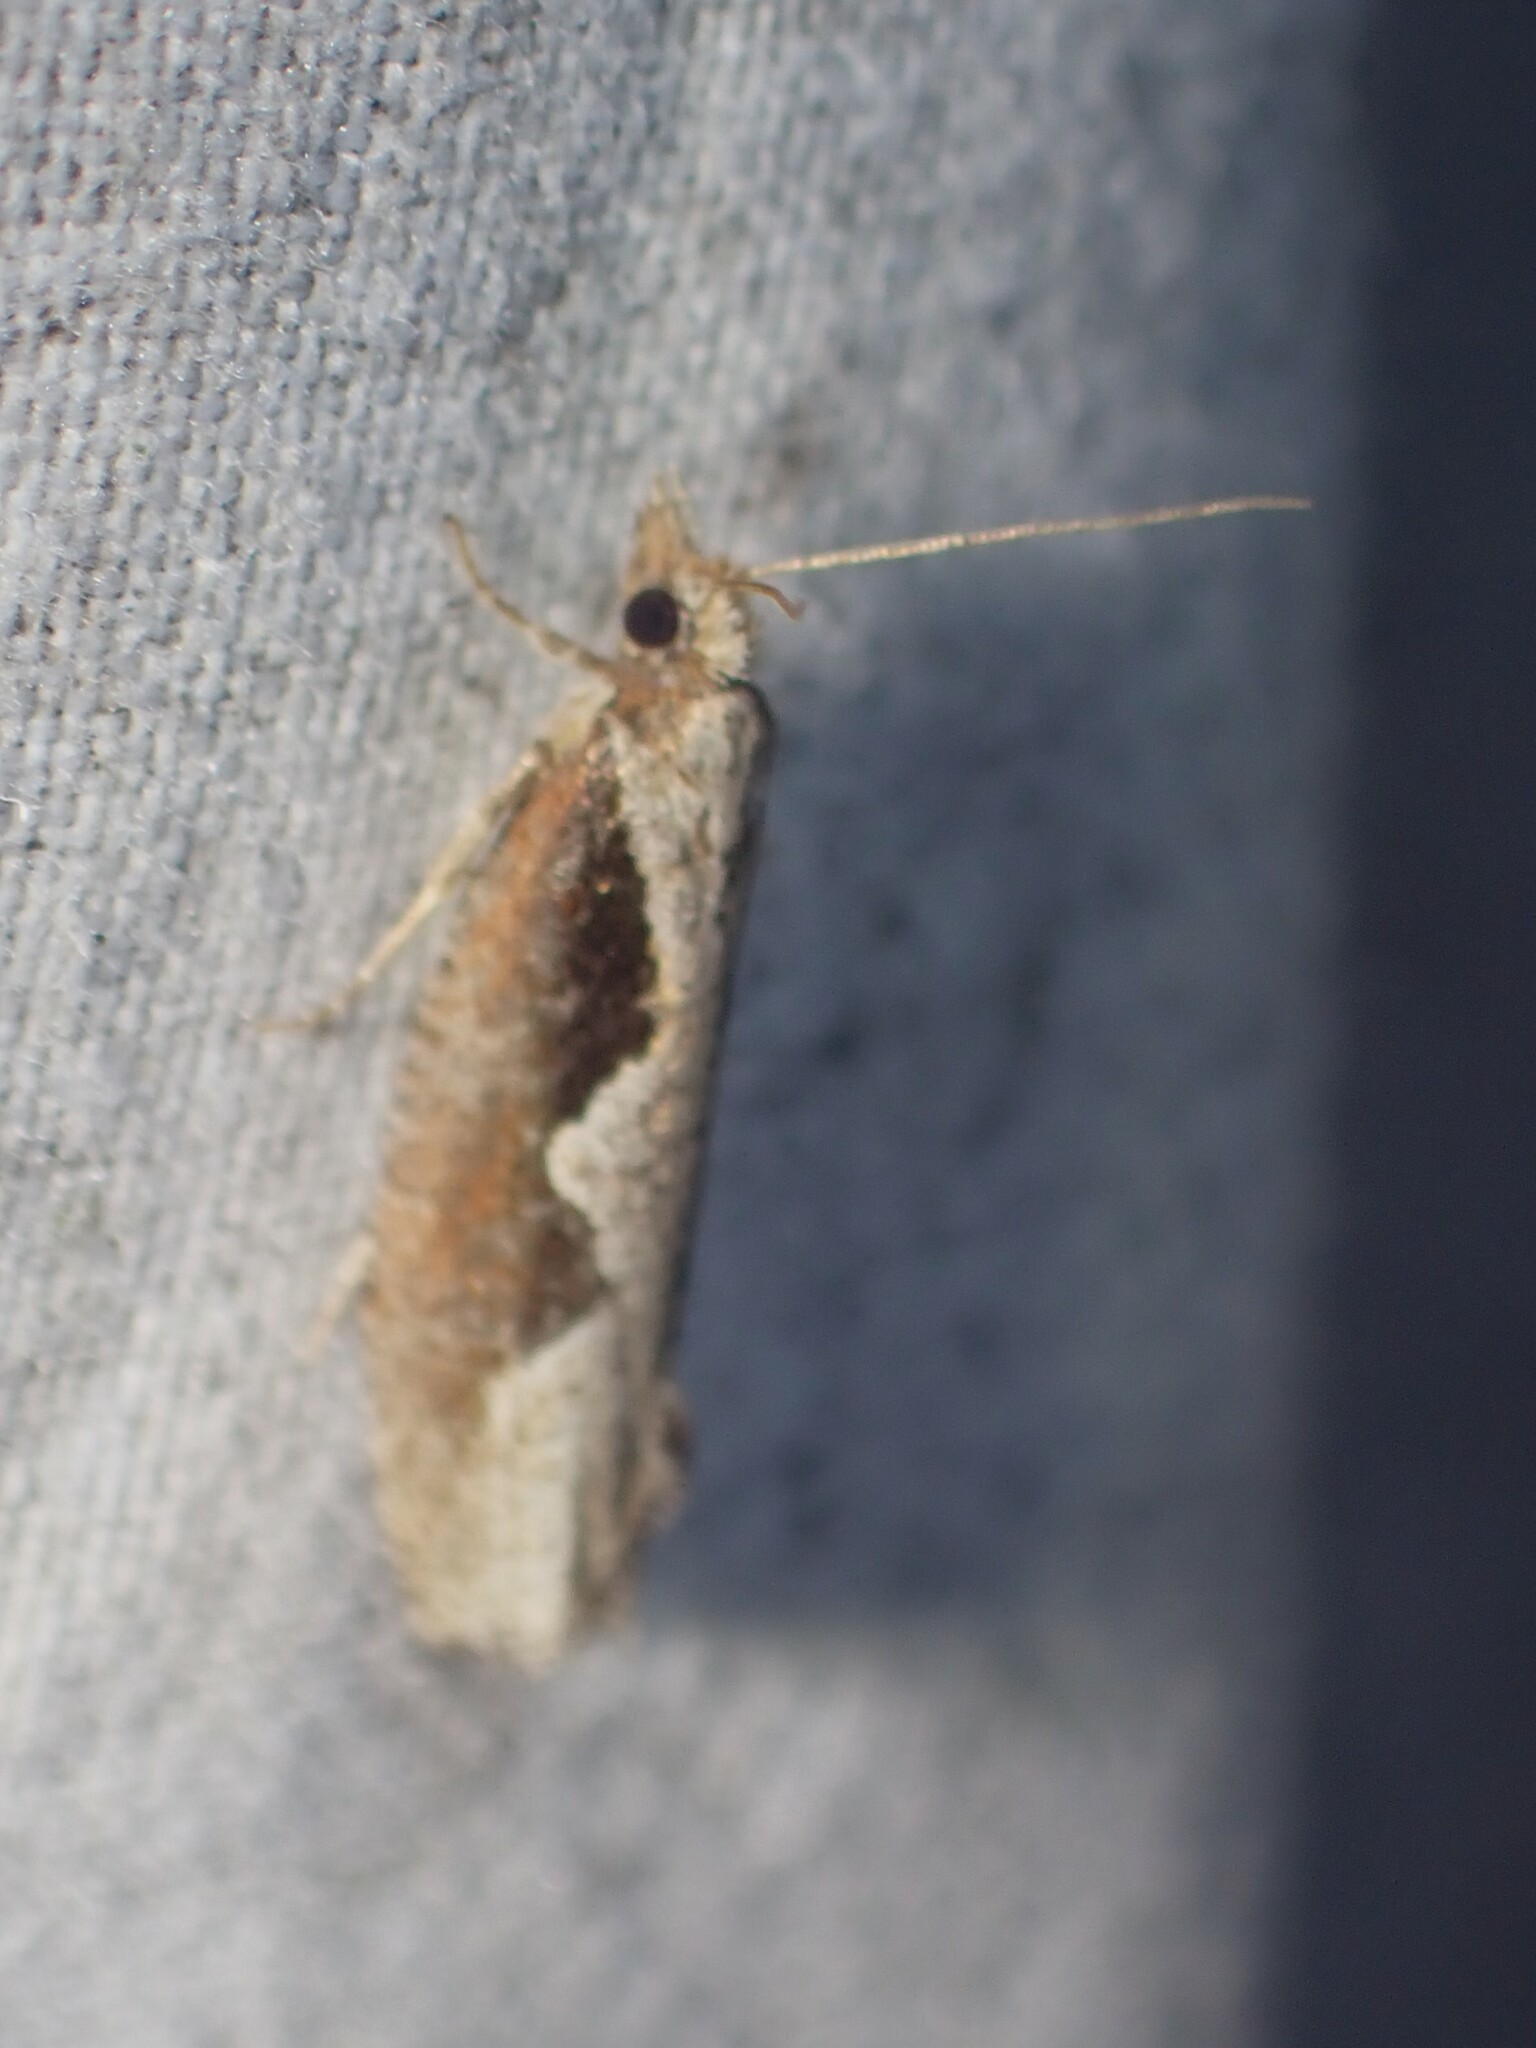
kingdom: Animalia
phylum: Arthropoda
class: Insecta
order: Lepidoptera
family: Tortricidae
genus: Epinotia
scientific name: Epinotia lindana
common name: Diamondback epinotia moth
